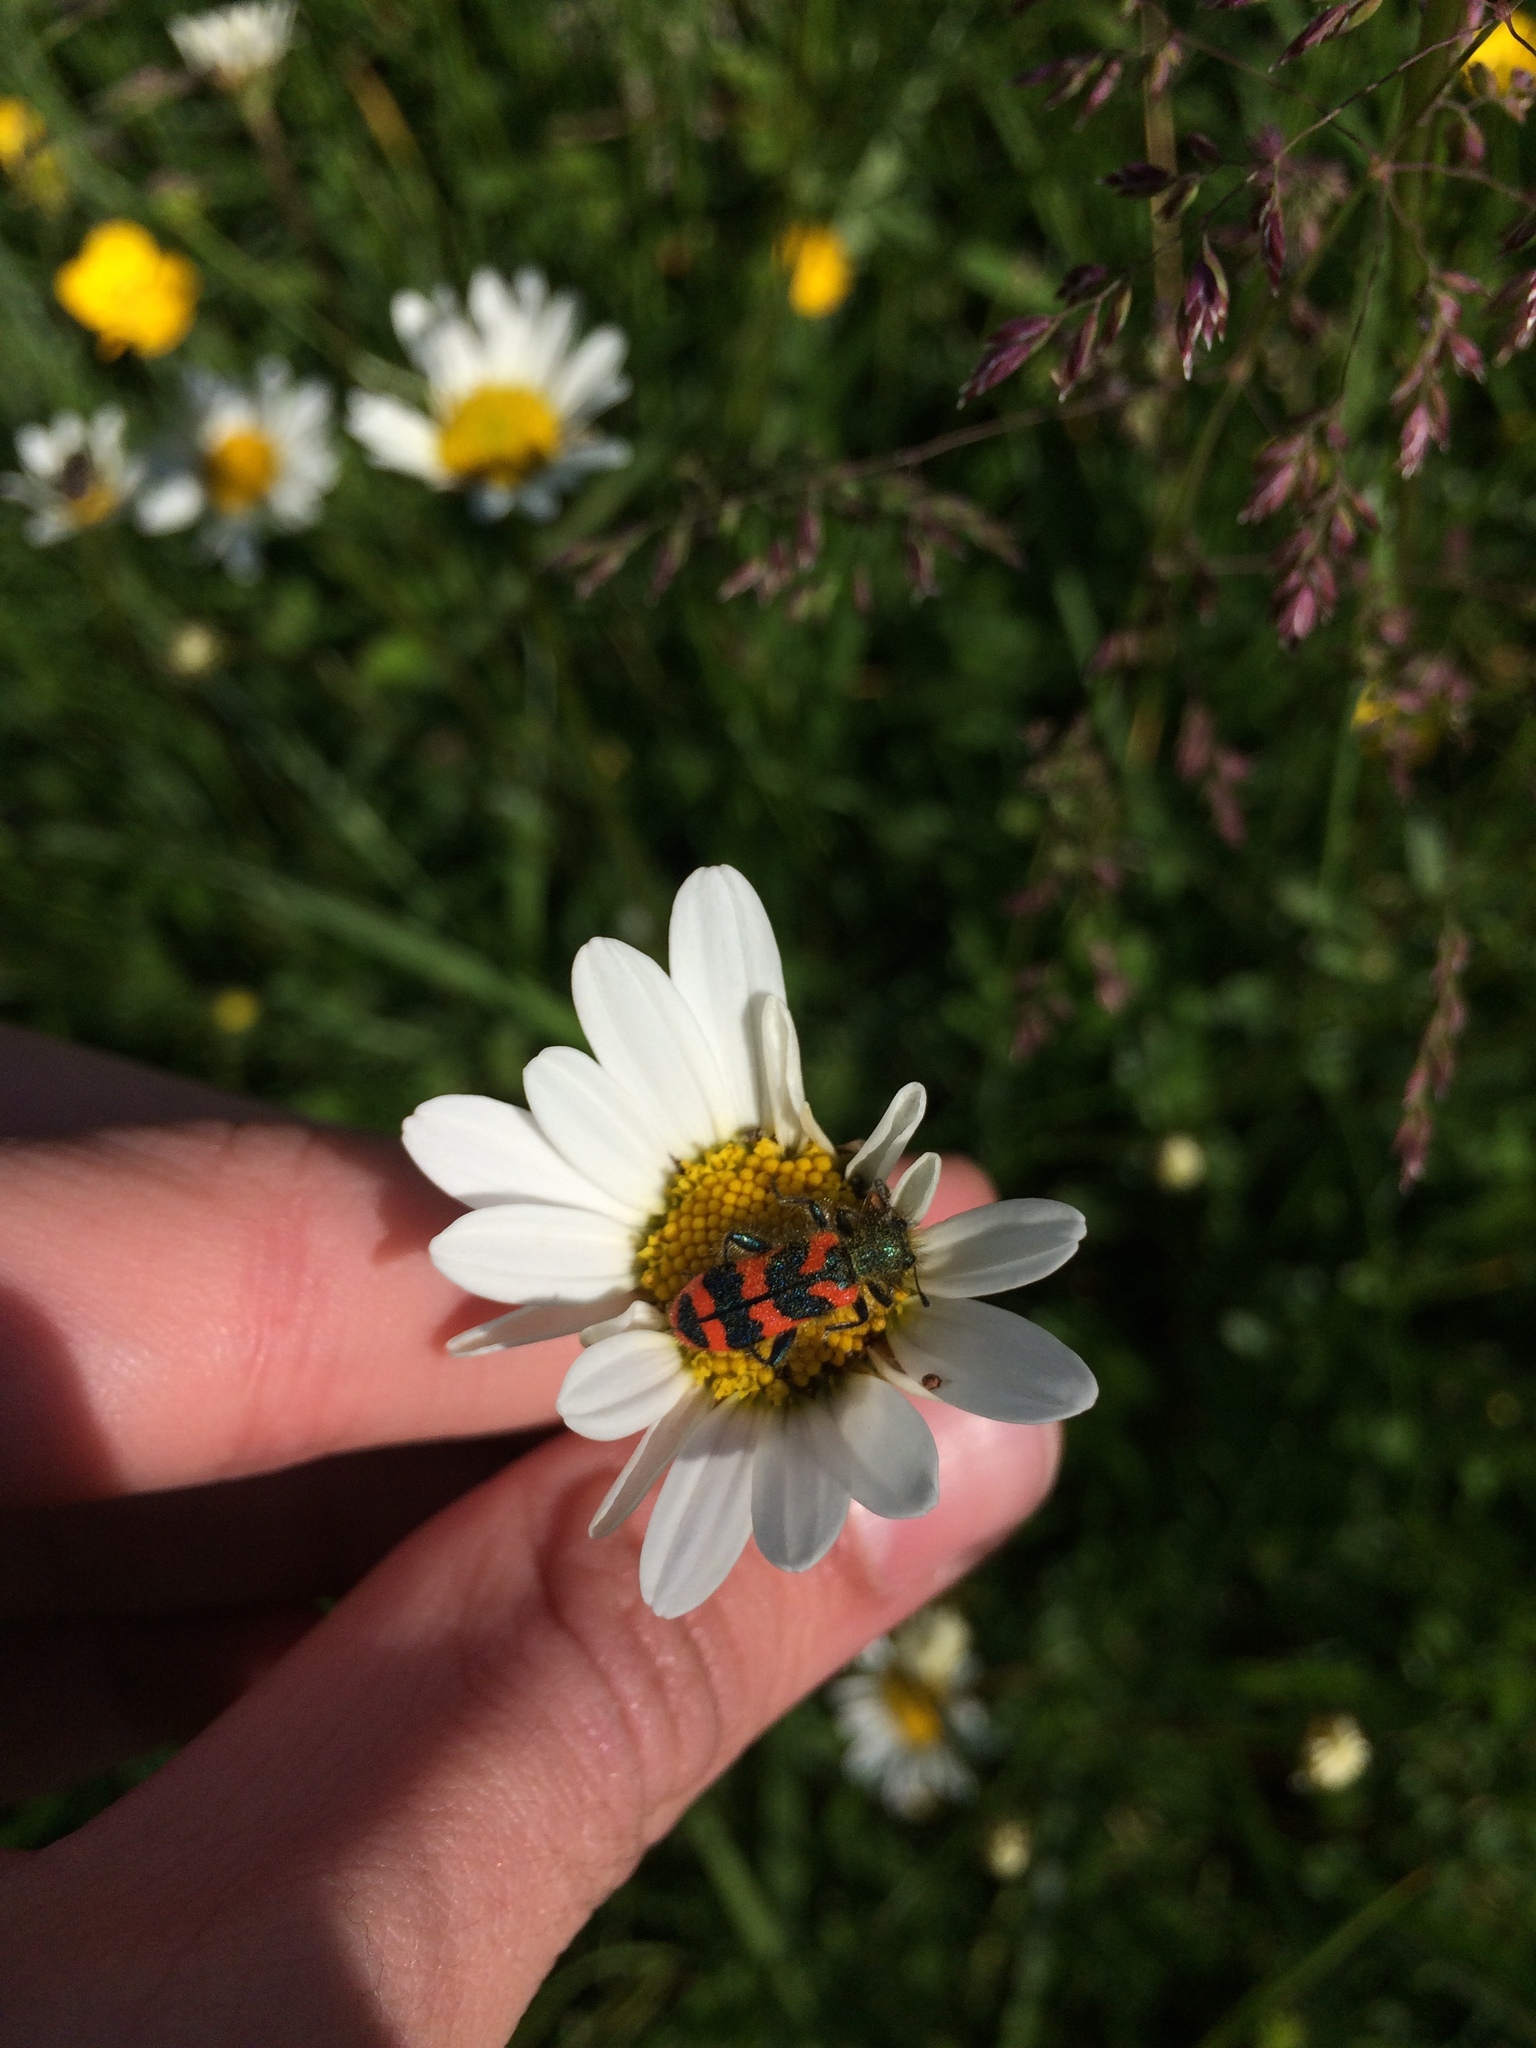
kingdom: Animalia
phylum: Arthropoda
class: Insecta
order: Coleoptera
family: Cleridae
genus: Trichodes
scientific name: Trichodes alvearius
